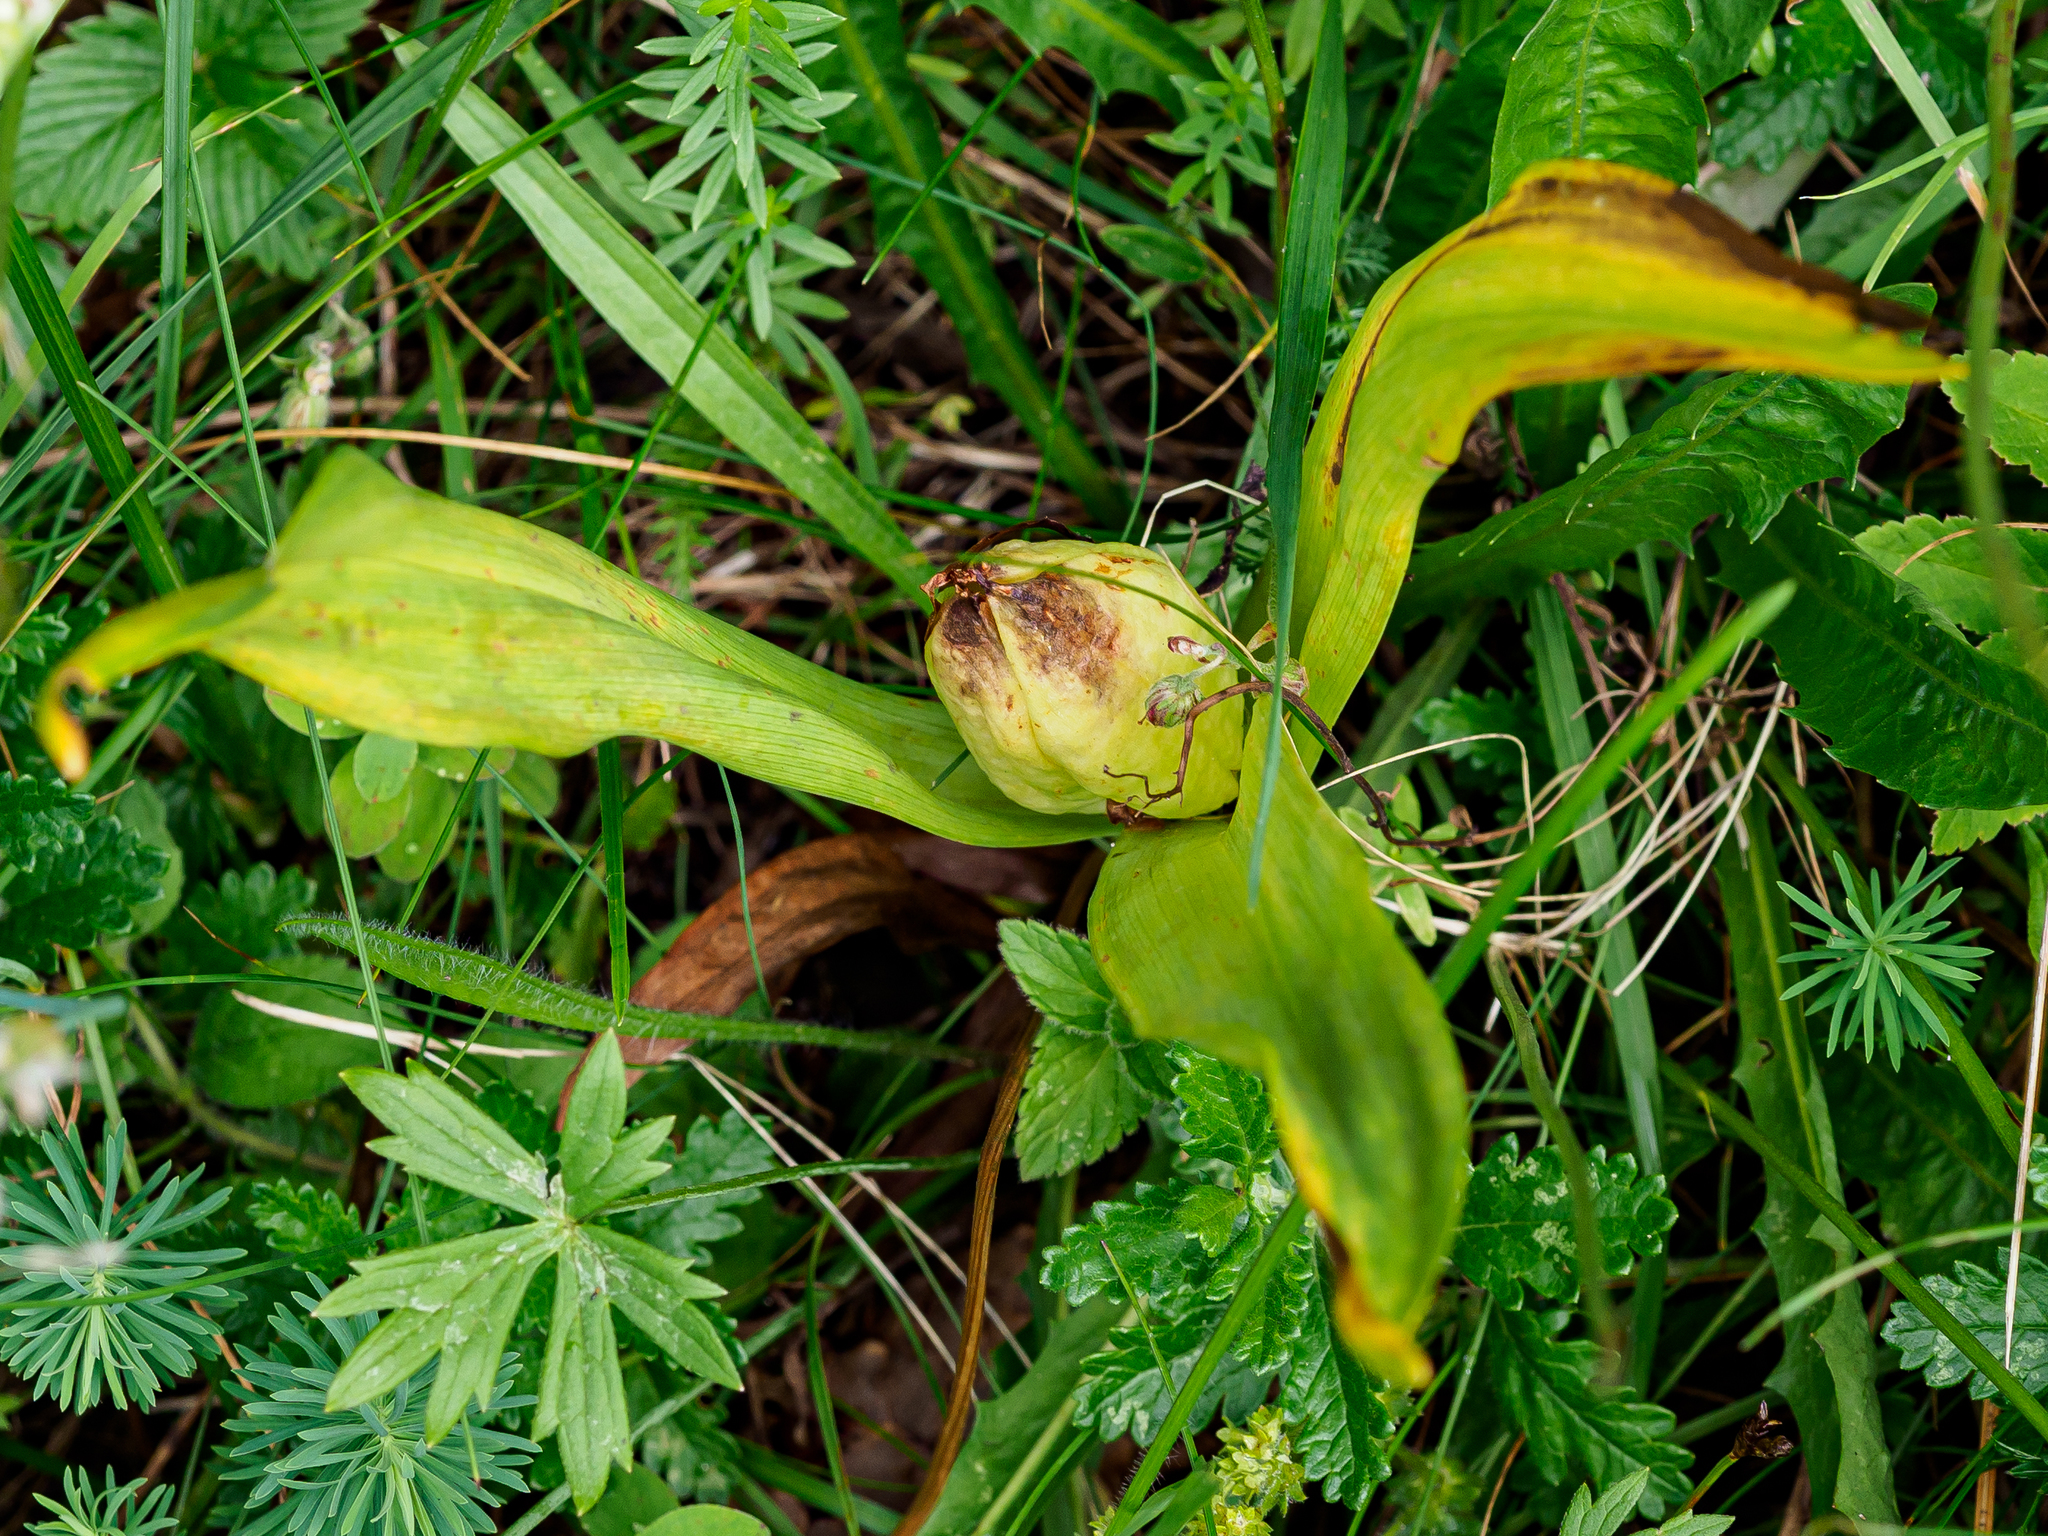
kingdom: Plantae
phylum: Tracheophyta
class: Liliopsida
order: Liliales
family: Colchicaceae
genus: Colchicum
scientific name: Colchicum autumnale
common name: Autumn crocus
